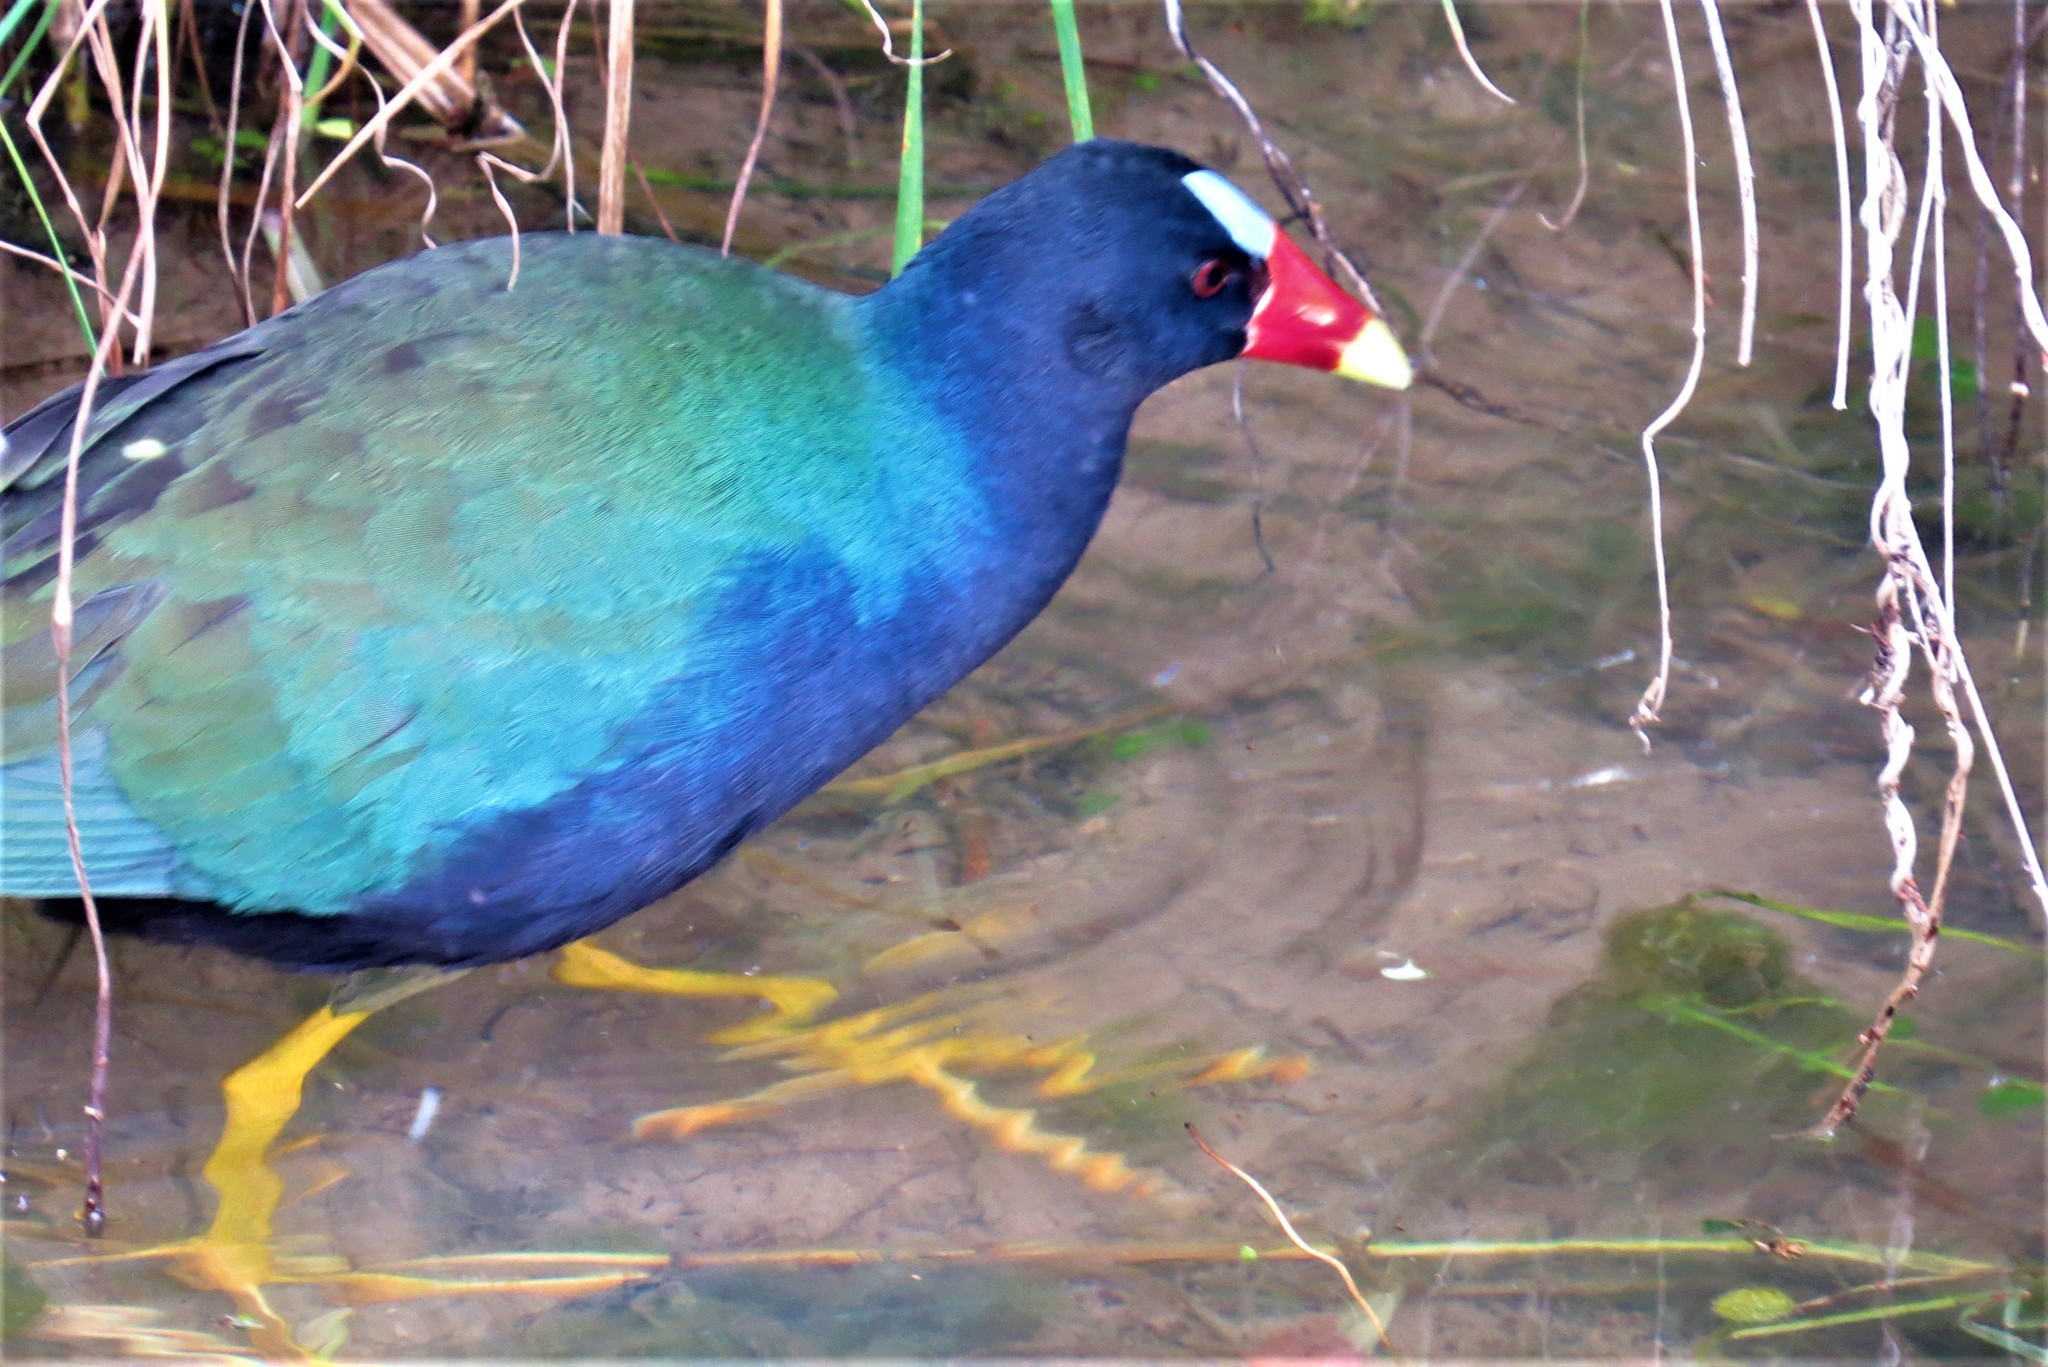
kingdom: Animalia
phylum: Chordata
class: Aves
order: Gruiformes
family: Rallidae
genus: Porphyrio
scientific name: Porphyrio martinica
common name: Purple gallinule
